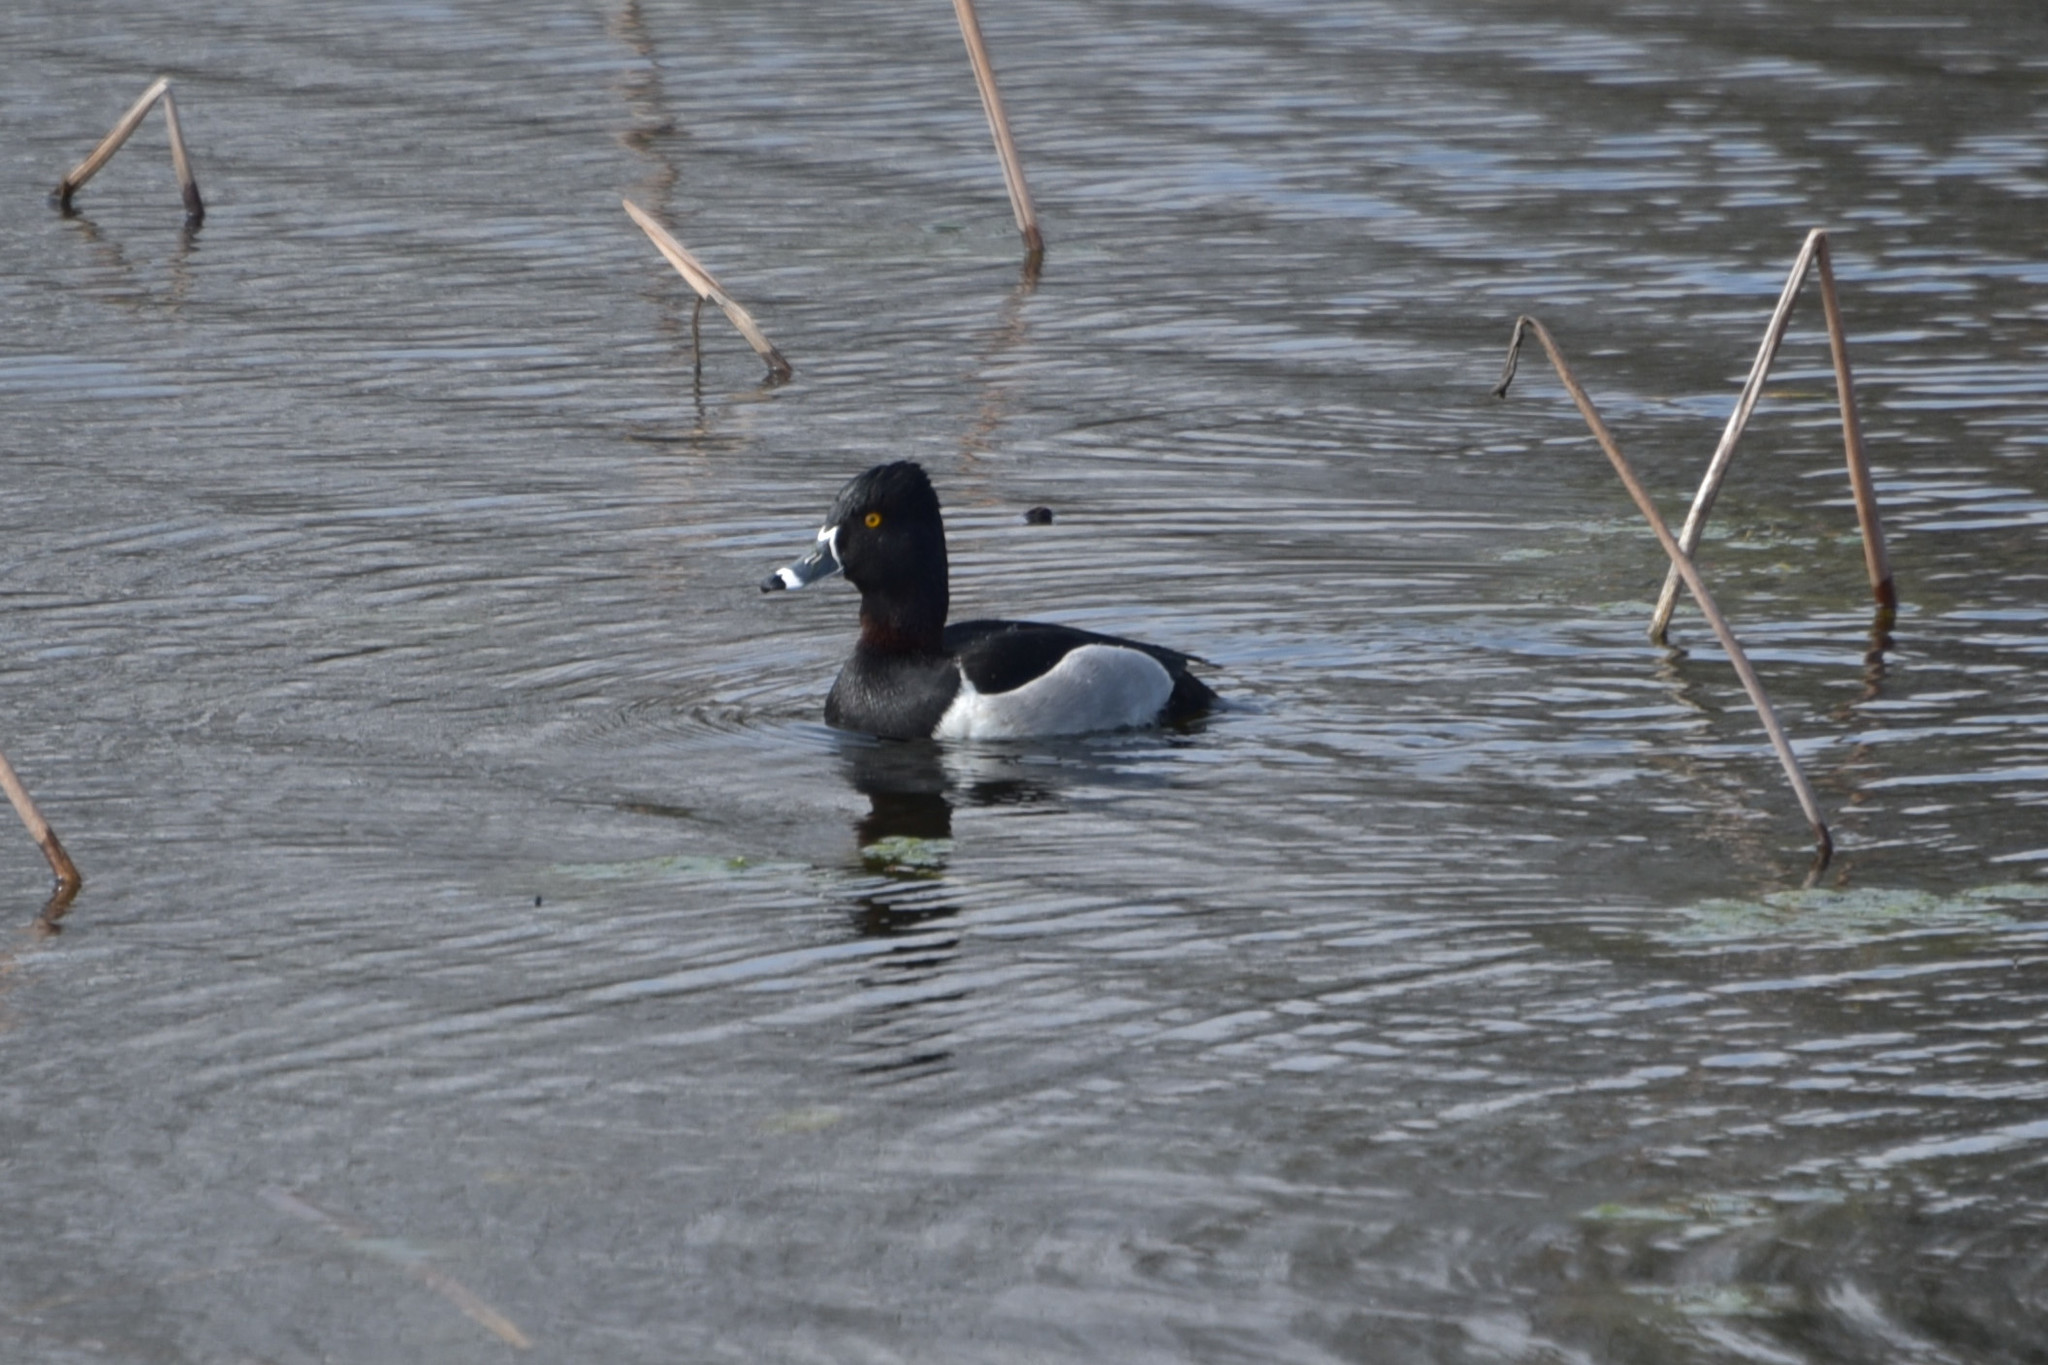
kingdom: Animalia
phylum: Chordata
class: Aves
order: Anseriformes
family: Anatidae
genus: Aythya
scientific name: Aythya collaris
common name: Ring-necked duck
